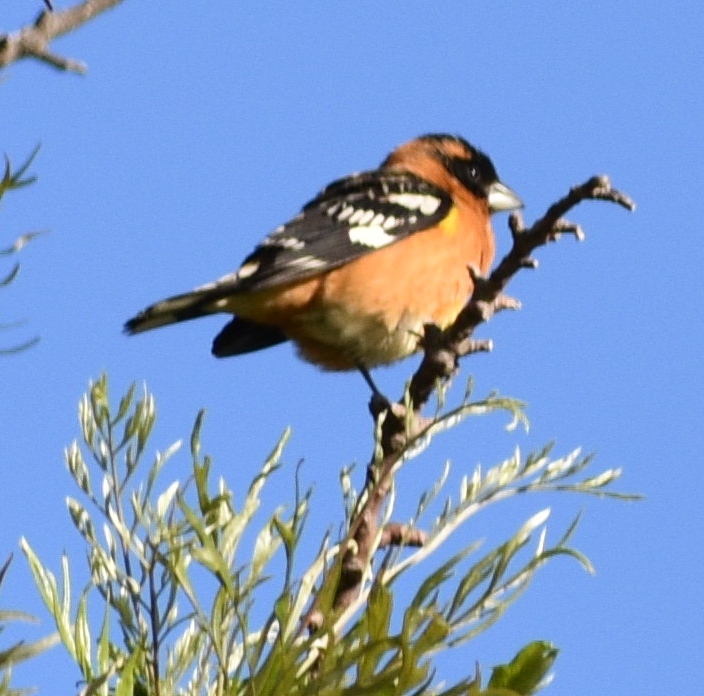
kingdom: Animalia
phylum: Chordata
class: Aves
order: Passeriformes
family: Cardinalidae
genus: Pheucticus
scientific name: Pheucticus melanocephalus
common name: Black-headed grosbeak
